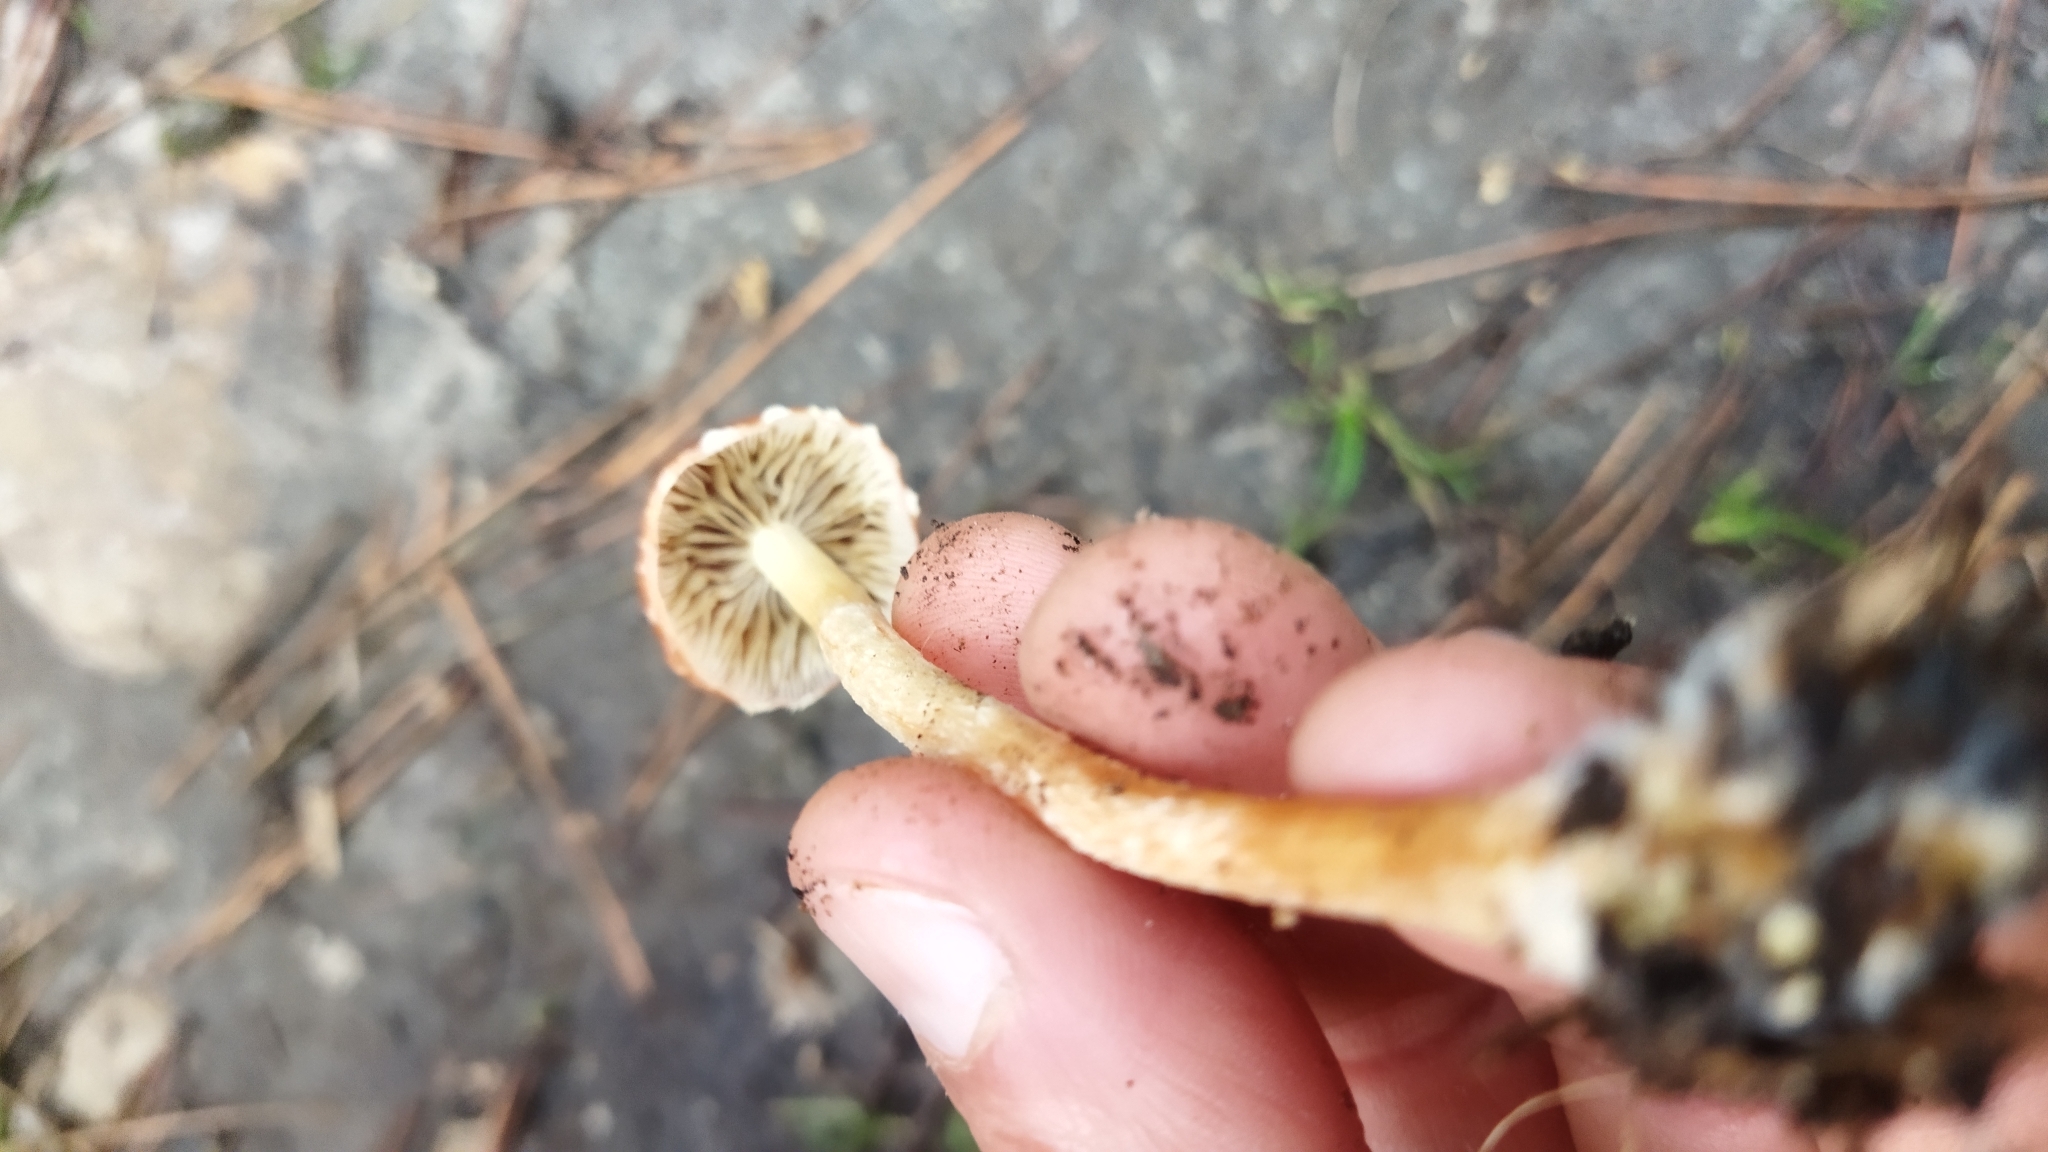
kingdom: Fungi
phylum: Basidiomycota
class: Agaricomycetes
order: Agaricales
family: Strophariaceae
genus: Leratiomyces
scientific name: Leratiomyces ceres
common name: Redlead roundhead
